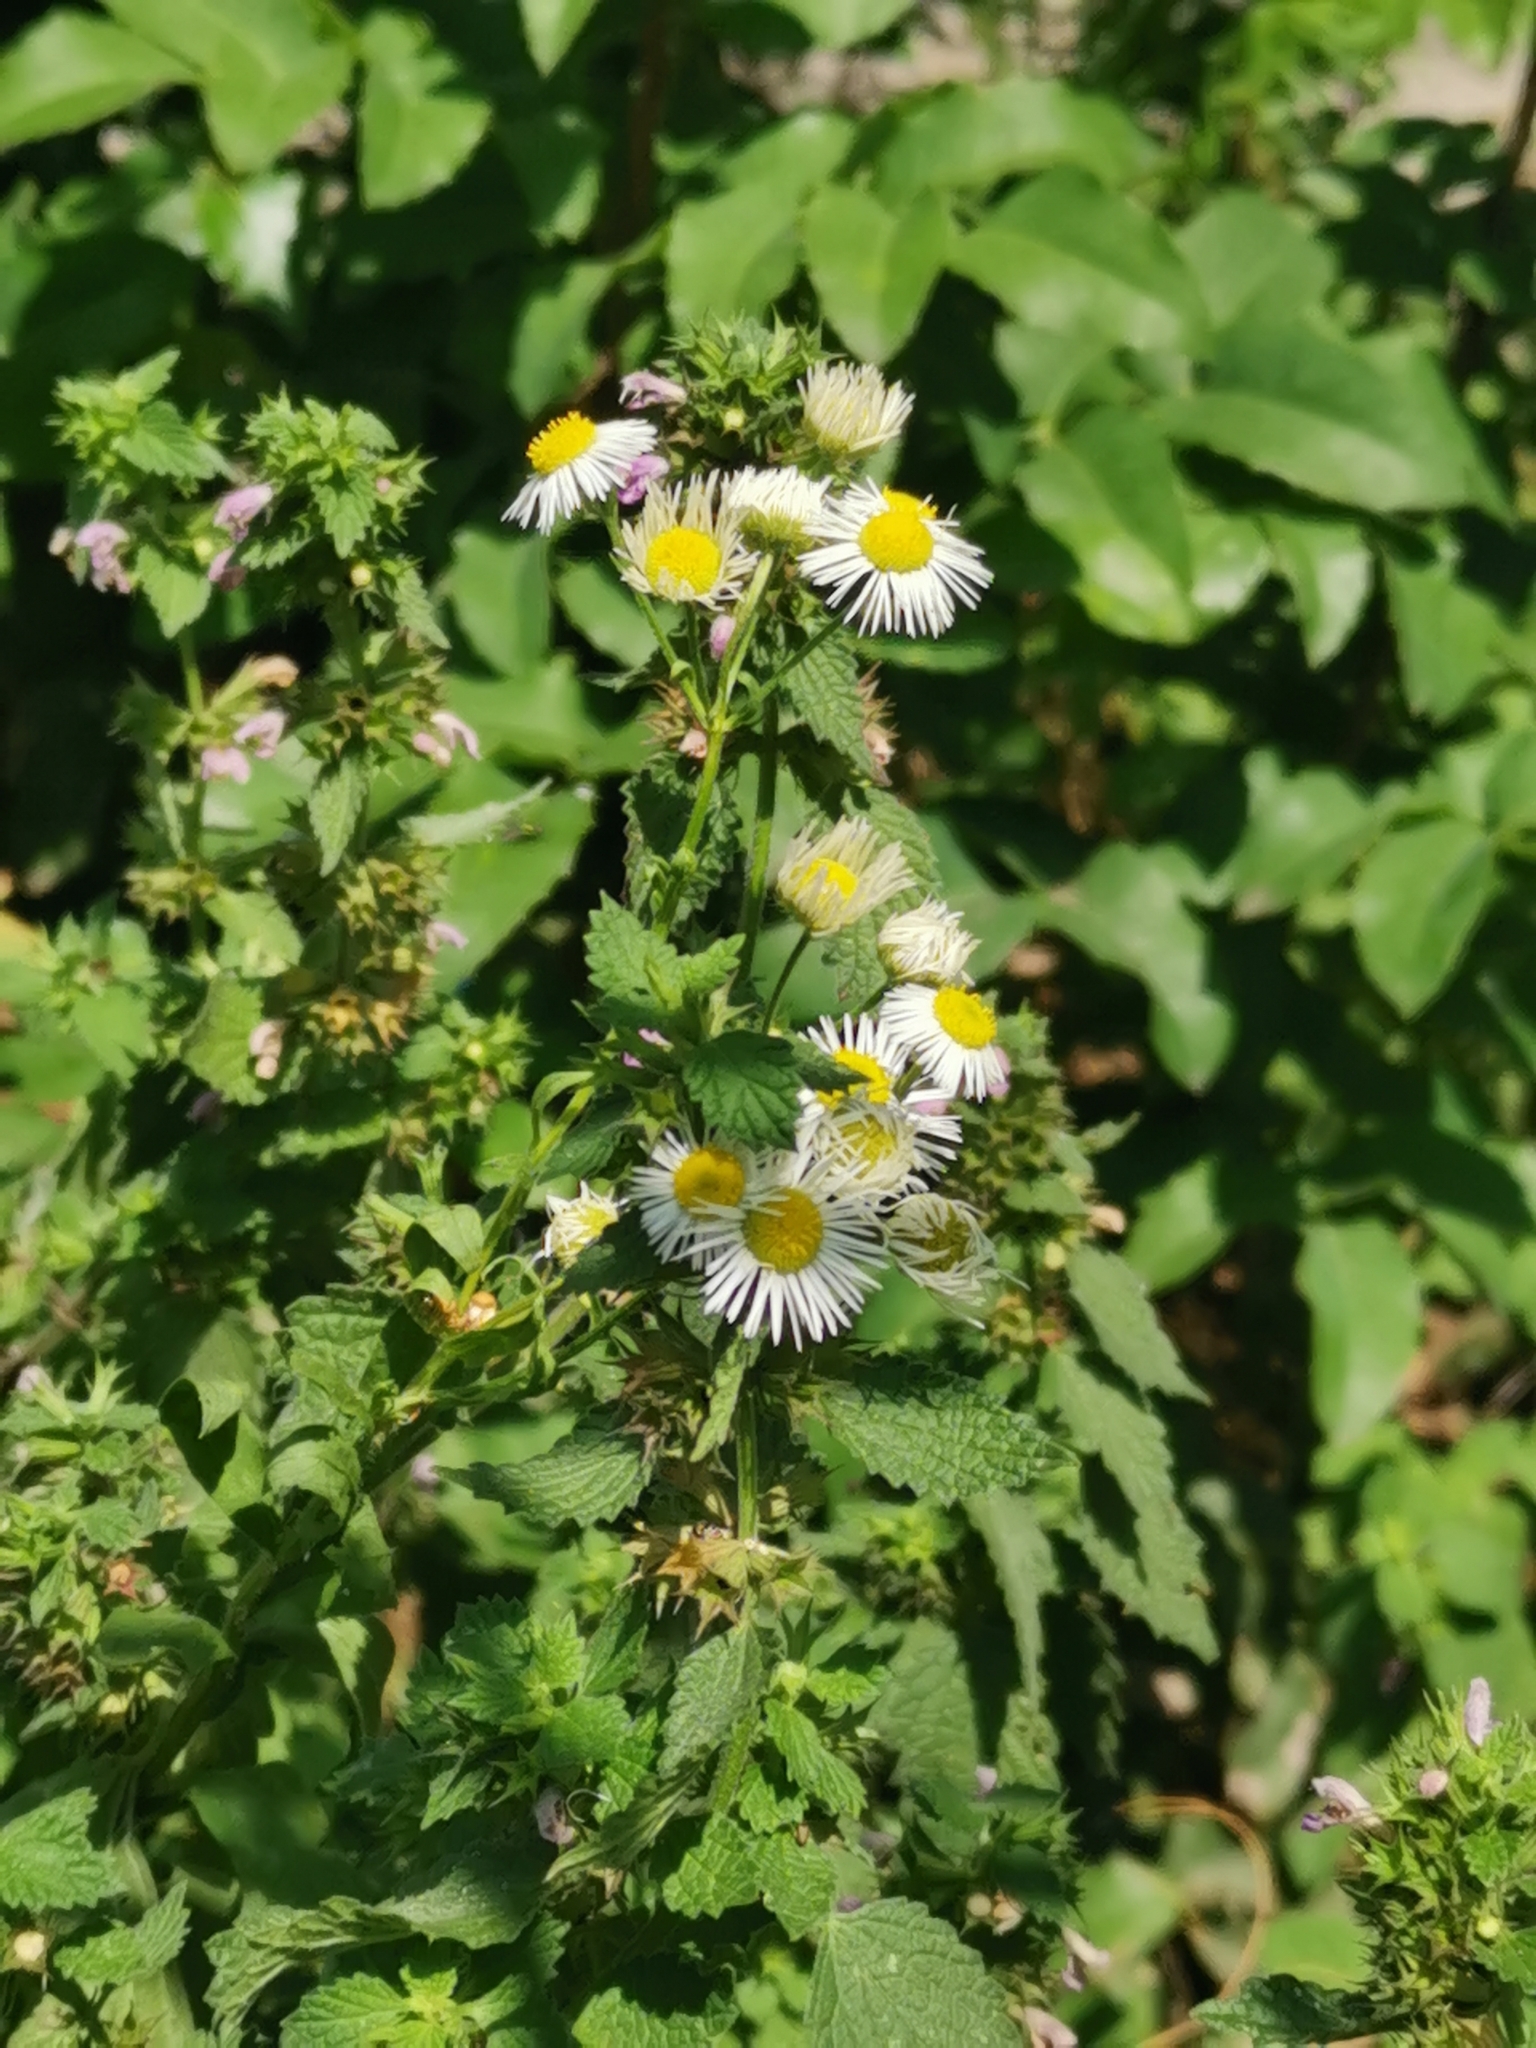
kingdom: Plantae
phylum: Tracheophyta
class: Magnoliopsida
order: Asterales
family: Asteraceae
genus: Erigeron
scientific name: Erigeron annuus
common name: Tall fleabane
